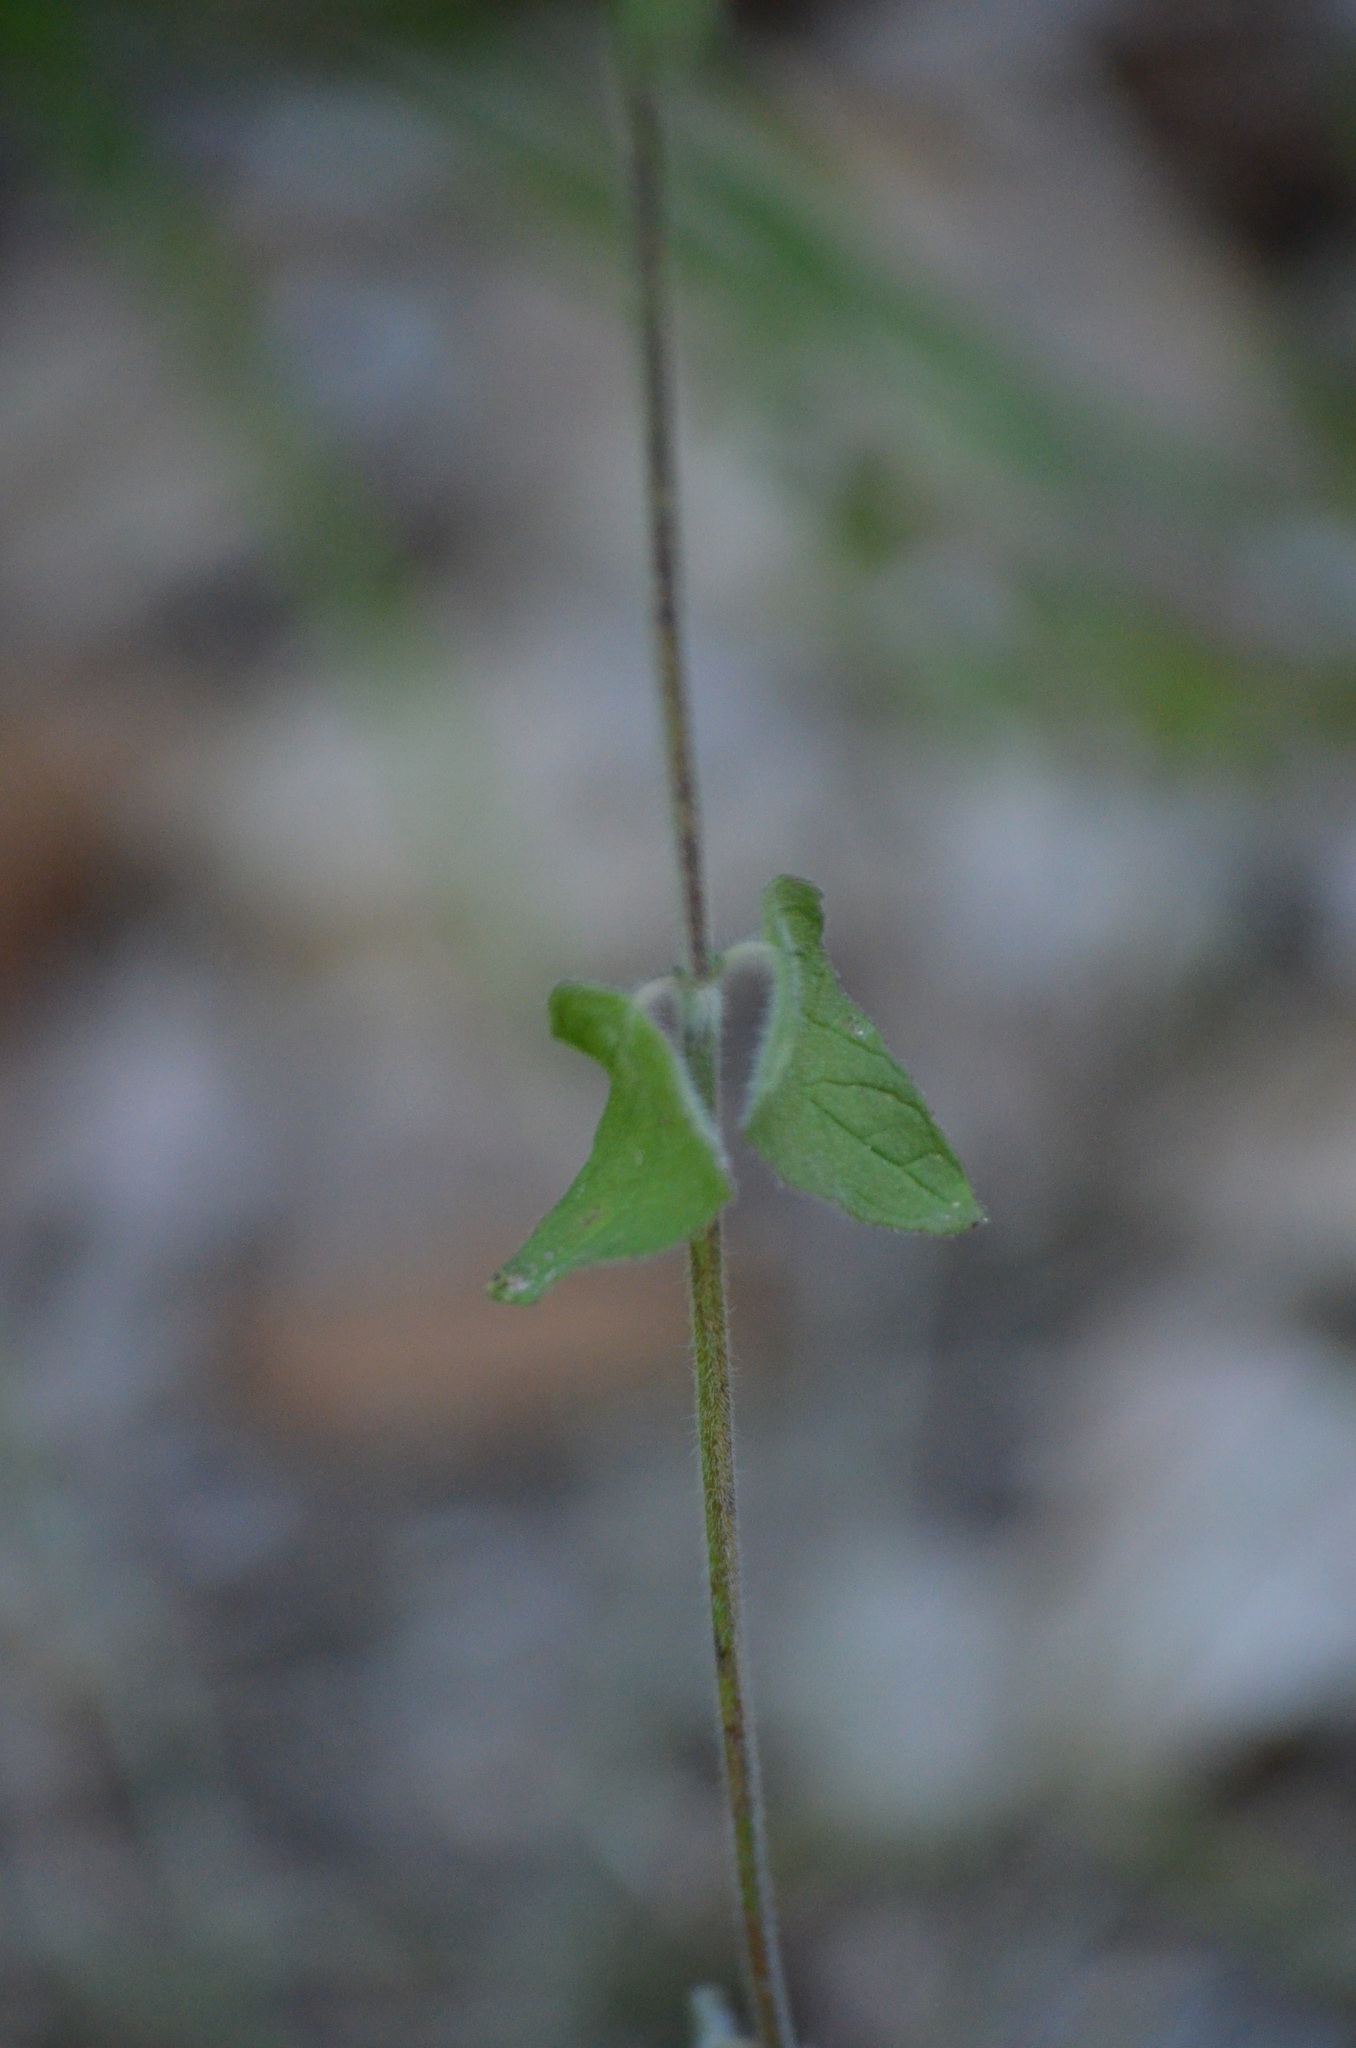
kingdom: Plantae
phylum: Tracheophyta
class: Magnoliopsida
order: Lamiales
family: Lamiaceae
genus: Clinopodium
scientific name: Clinopodium vulgare
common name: Wild basil
